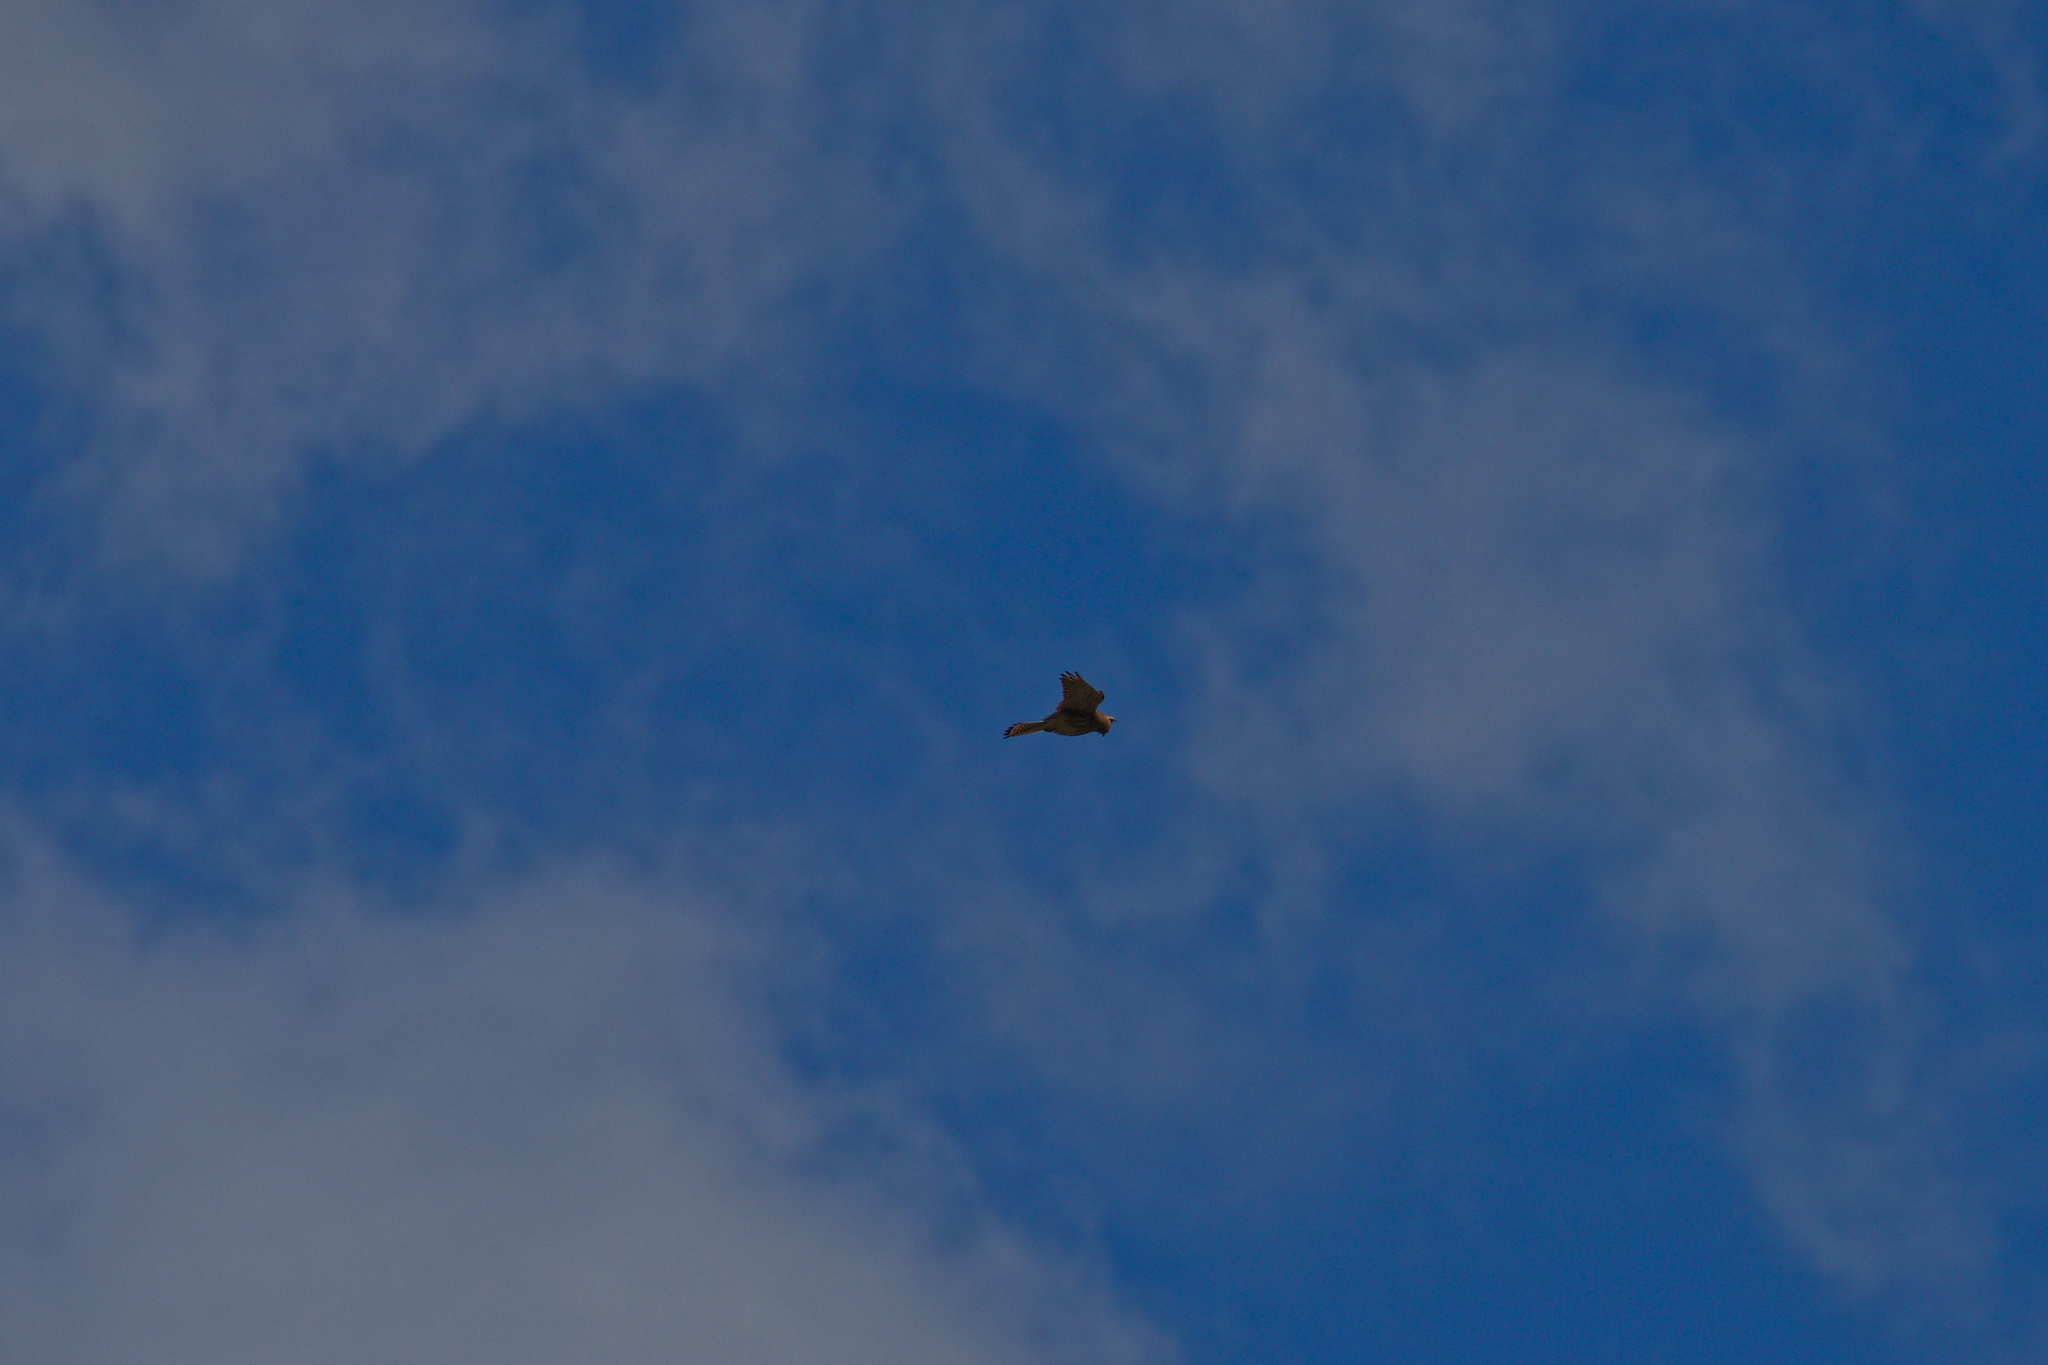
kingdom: Animalia
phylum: Chordata
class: Aves
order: Falconiformes
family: Falconidae
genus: Falco
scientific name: Falco tinnunculus
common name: Common kestrel
